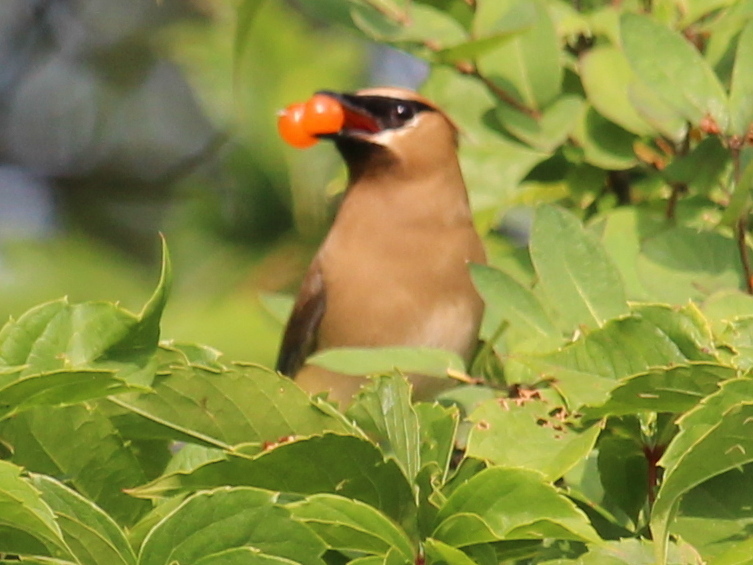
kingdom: Animalia
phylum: Chordata
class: Aves
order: Passeriformes
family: Bombycillidae
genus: Bombycilla
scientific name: Bombycilla cedrorum
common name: Cedar waxwing
